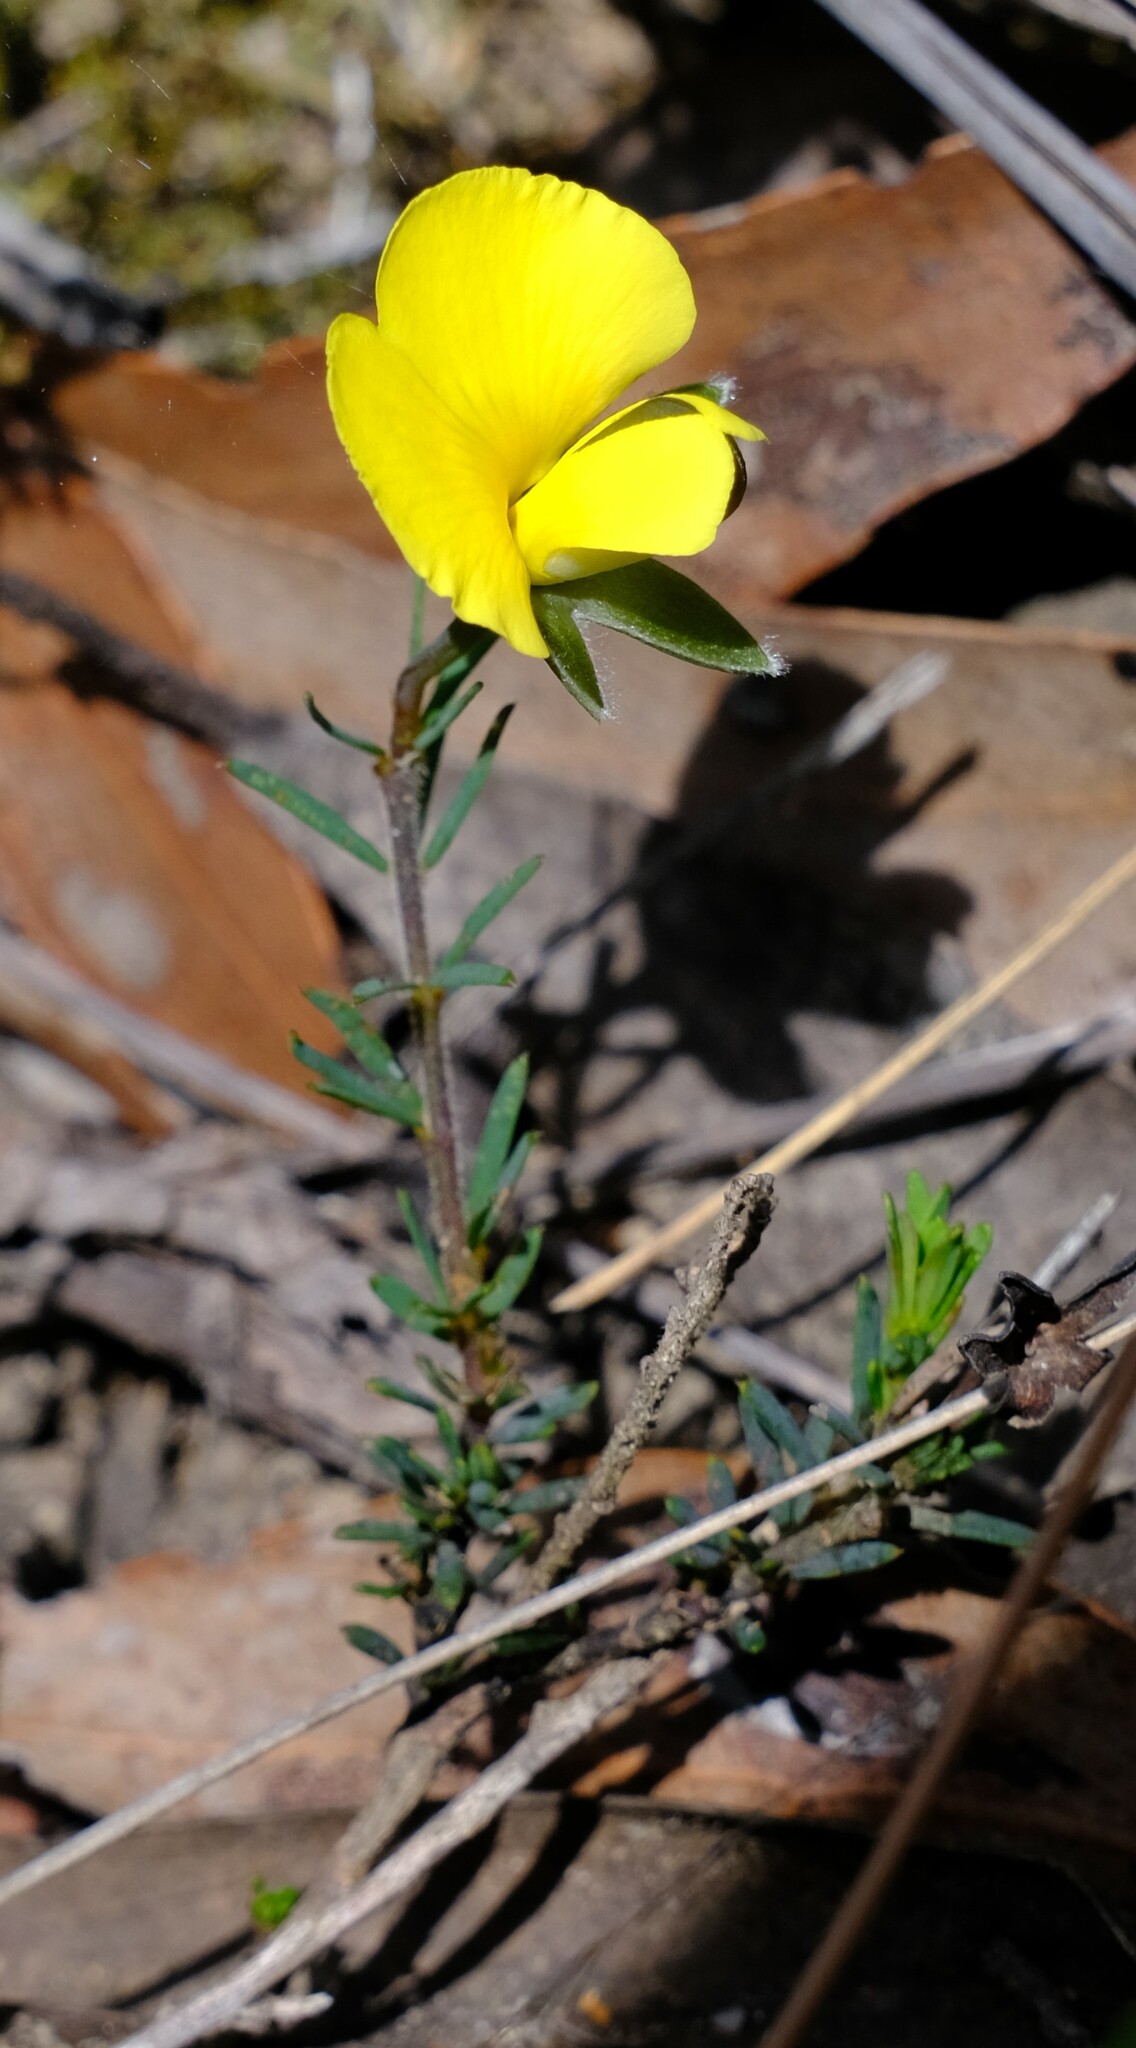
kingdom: Plantae
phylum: Tracheophyta
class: Magnoliopsida
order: Fabales
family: Fabaceae
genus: Gompholobium
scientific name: Gompholobium huegelii
